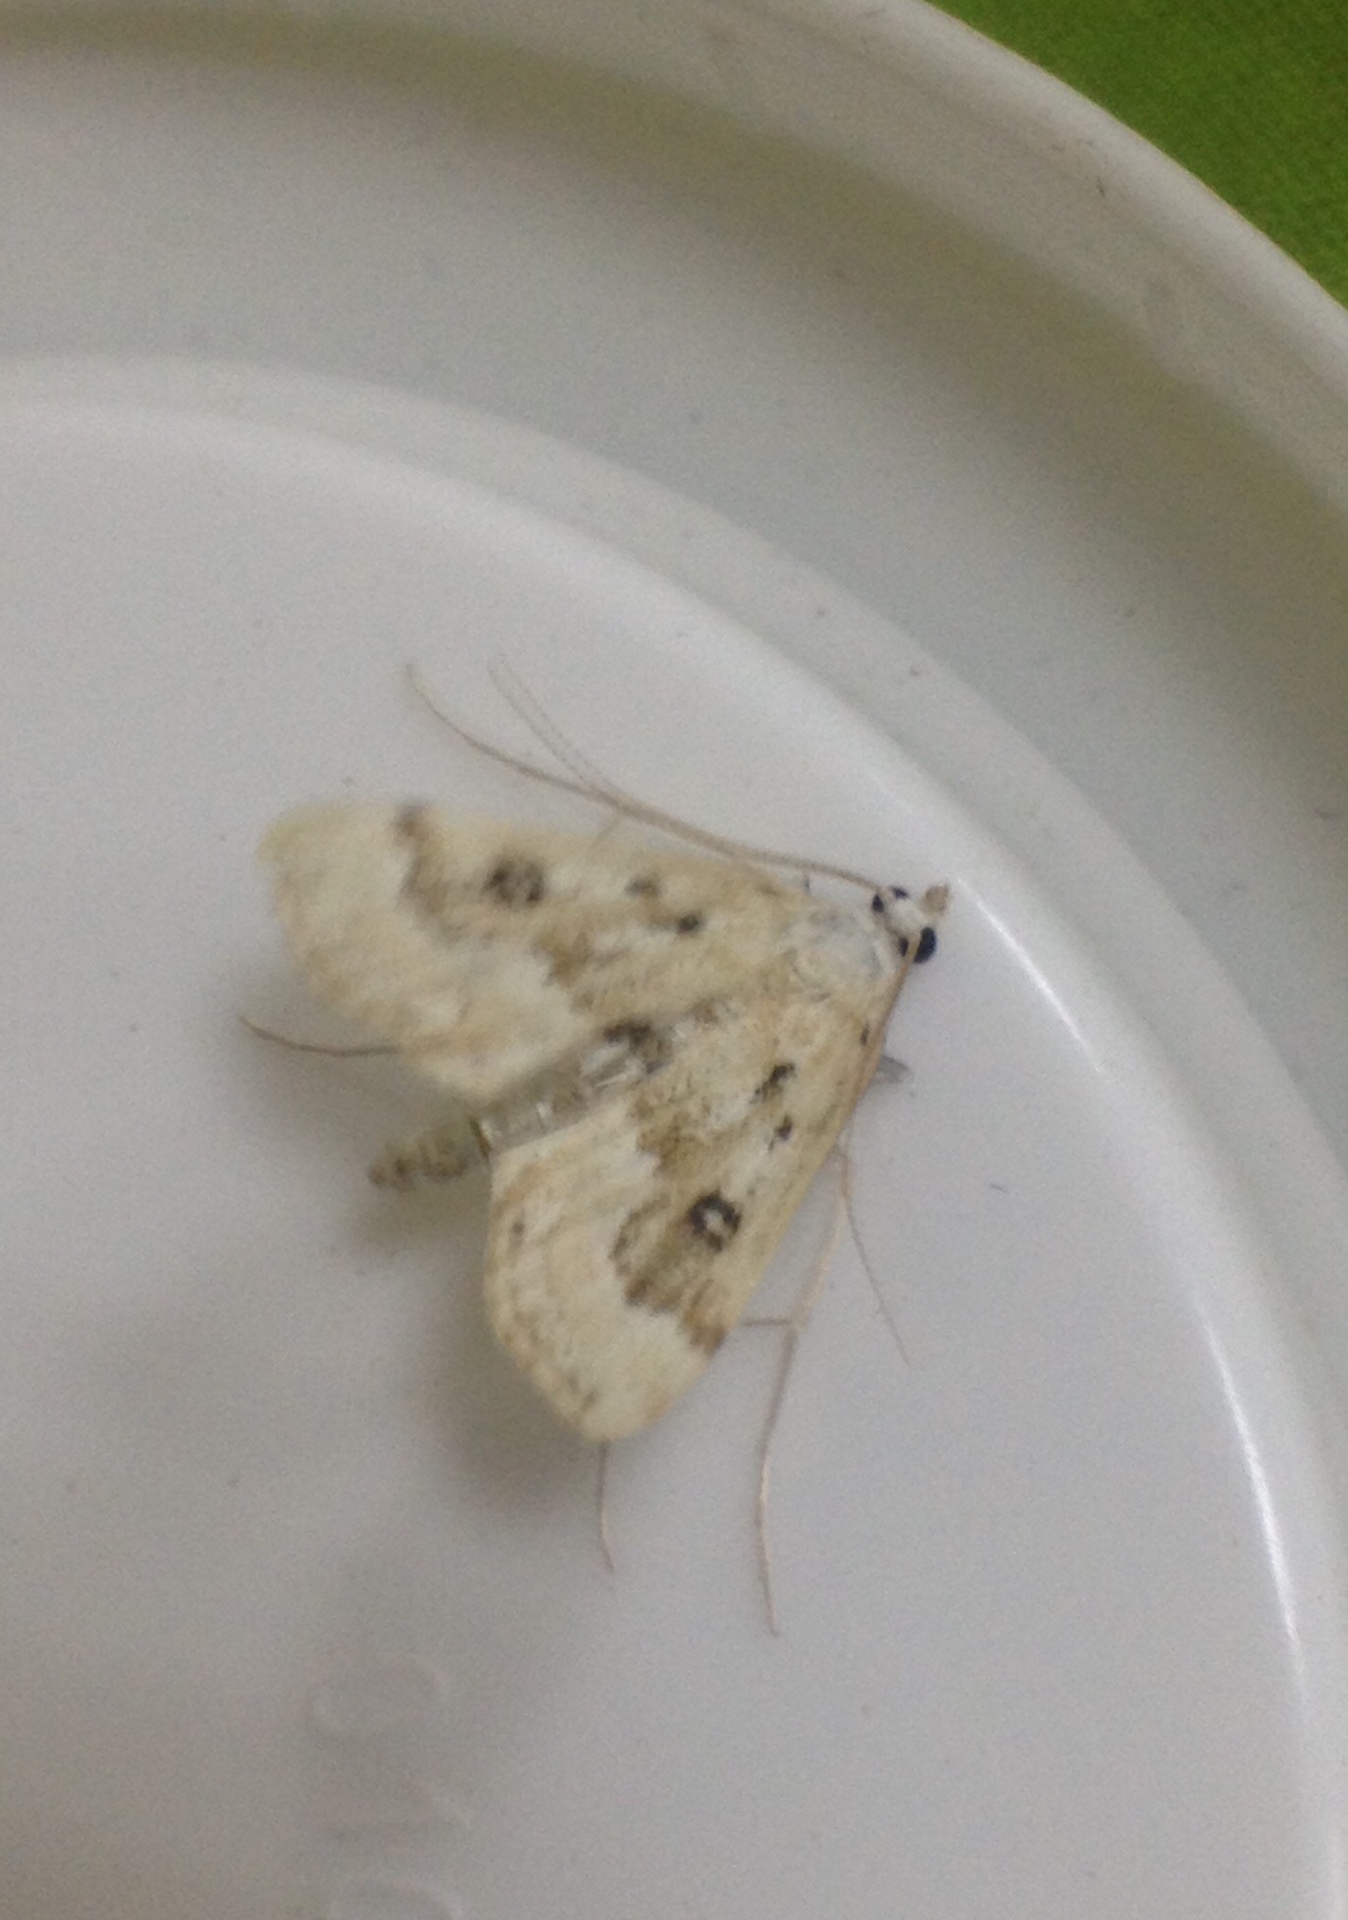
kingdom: Animalia
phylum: Arthropoda
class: Insecta
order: Lepidoptera
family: Crambidae
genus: Parapoynx
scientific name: Parapoynx stratiotata
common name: Ringed china-mark
